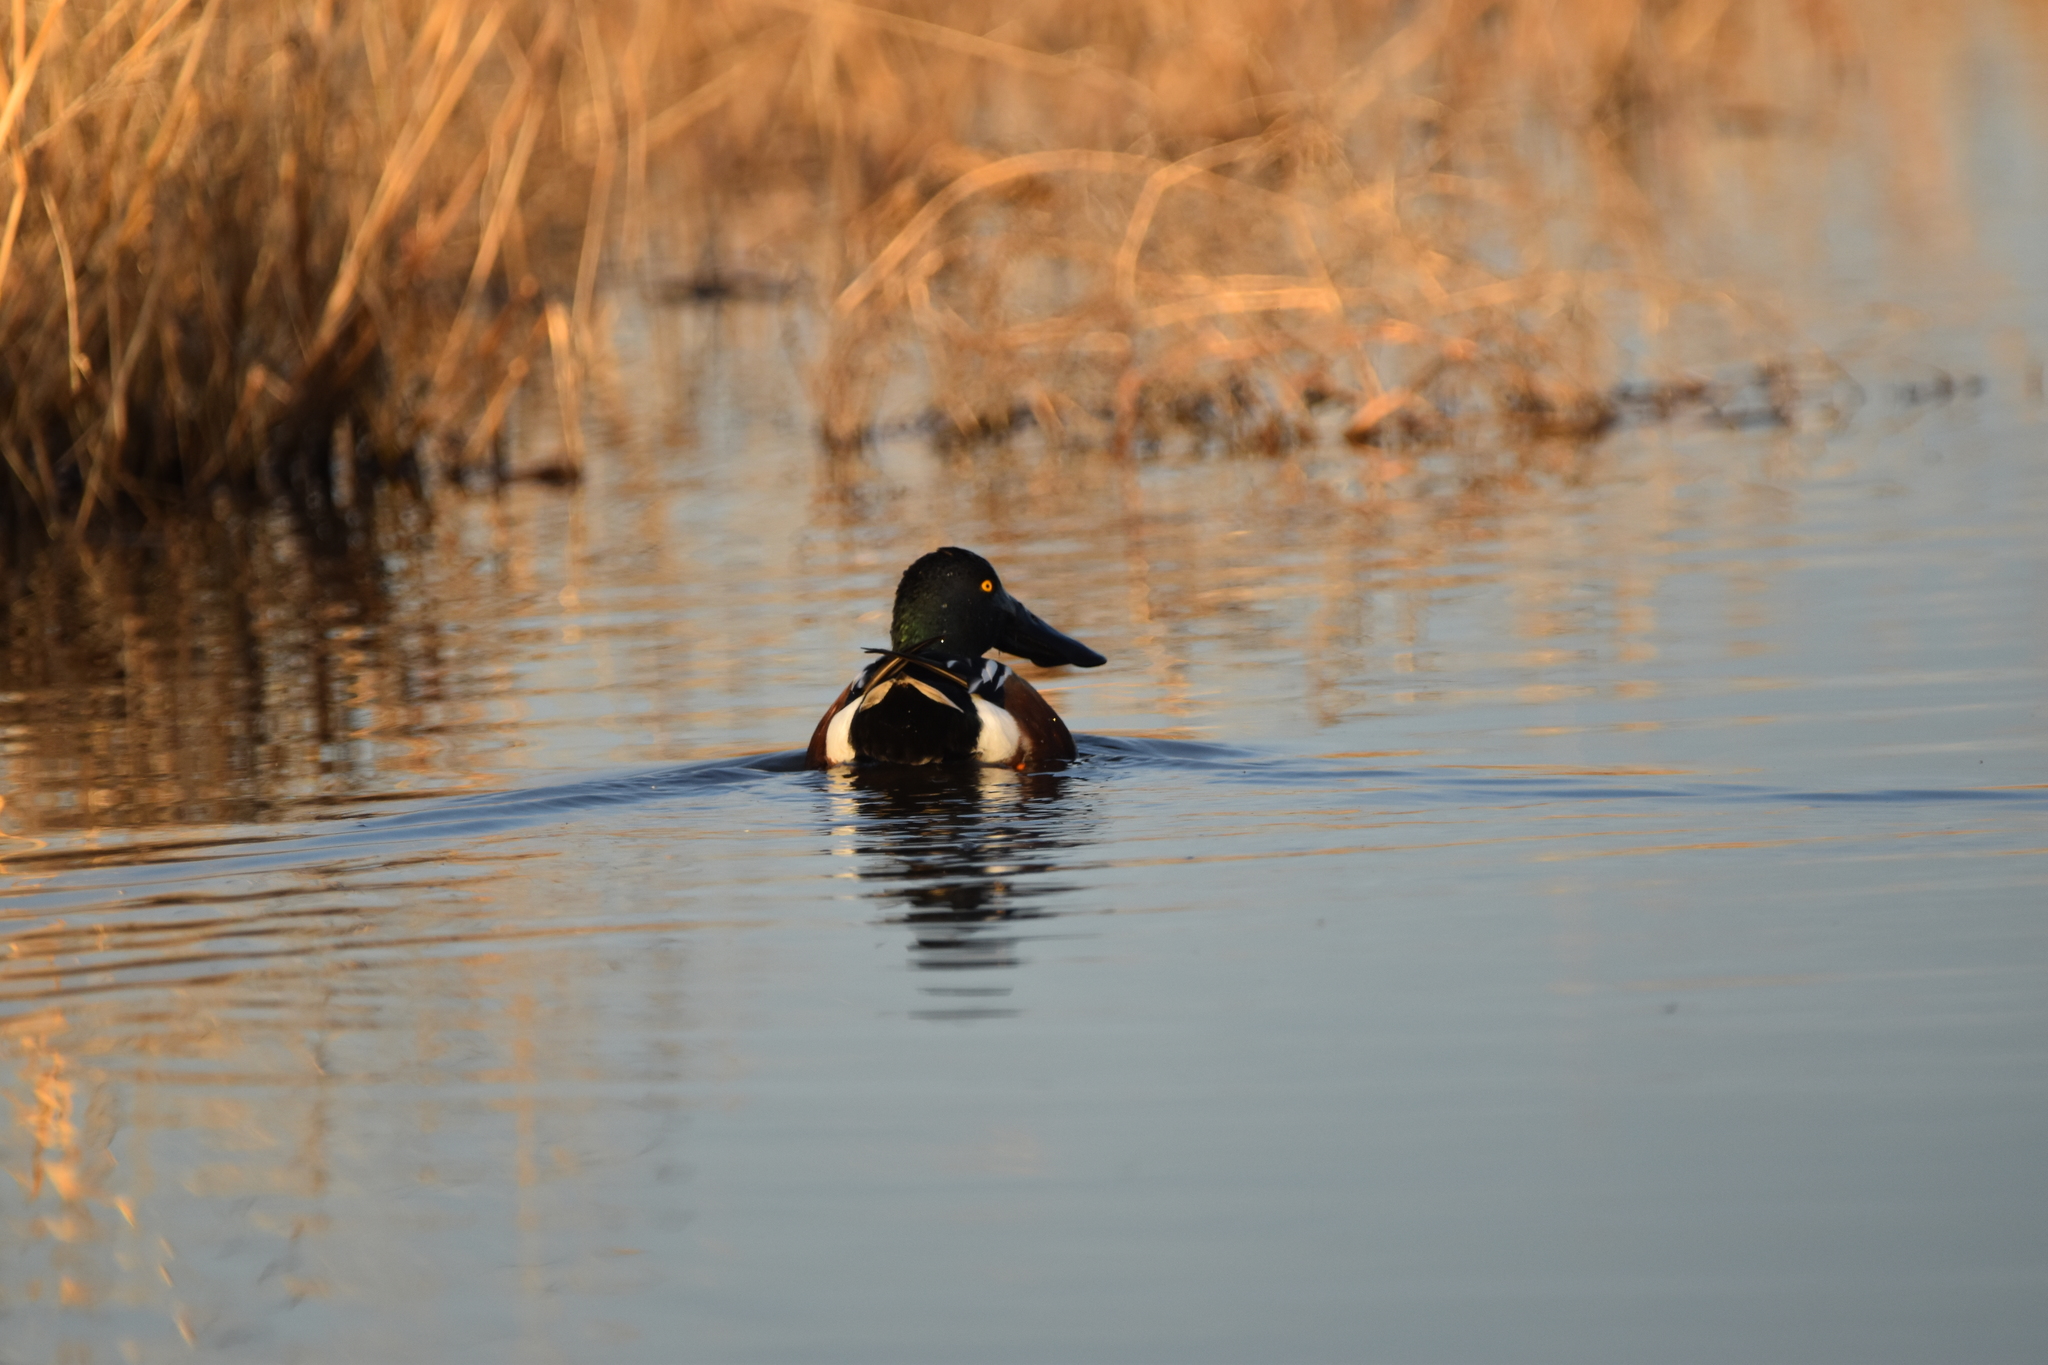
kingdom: Animalia
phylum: Chordata
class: Aves
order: Anseriformes
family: Anatidae
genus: Spatula
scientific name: Spatula clypeata
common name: Northern shoveler
